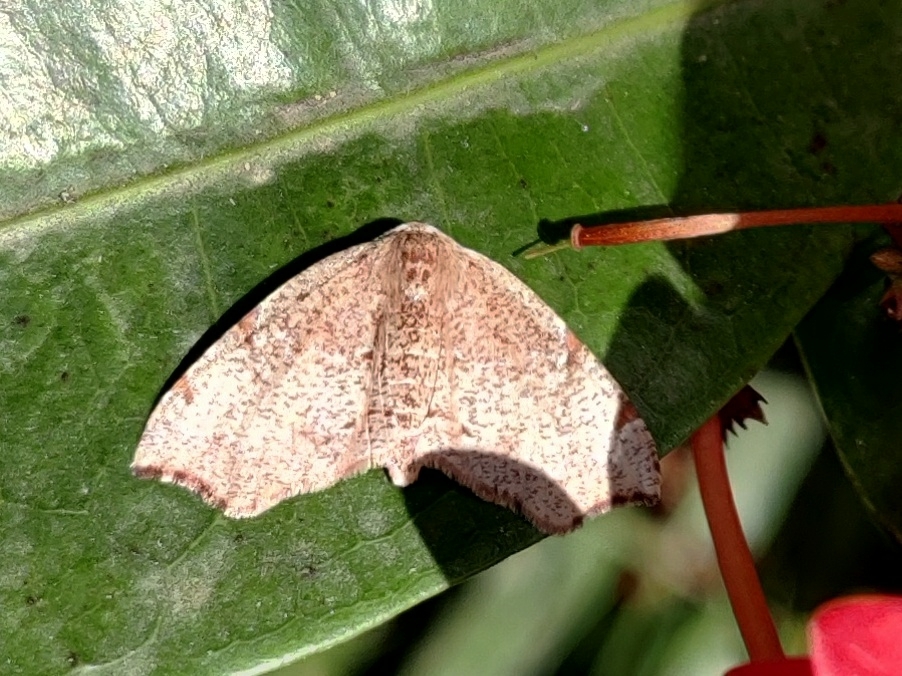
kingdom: Animalia
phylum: Arthropoda
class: Insecta
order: Lepidoptera
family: Geometridae
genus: Achrosis
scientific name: Achrosis rondelaria
